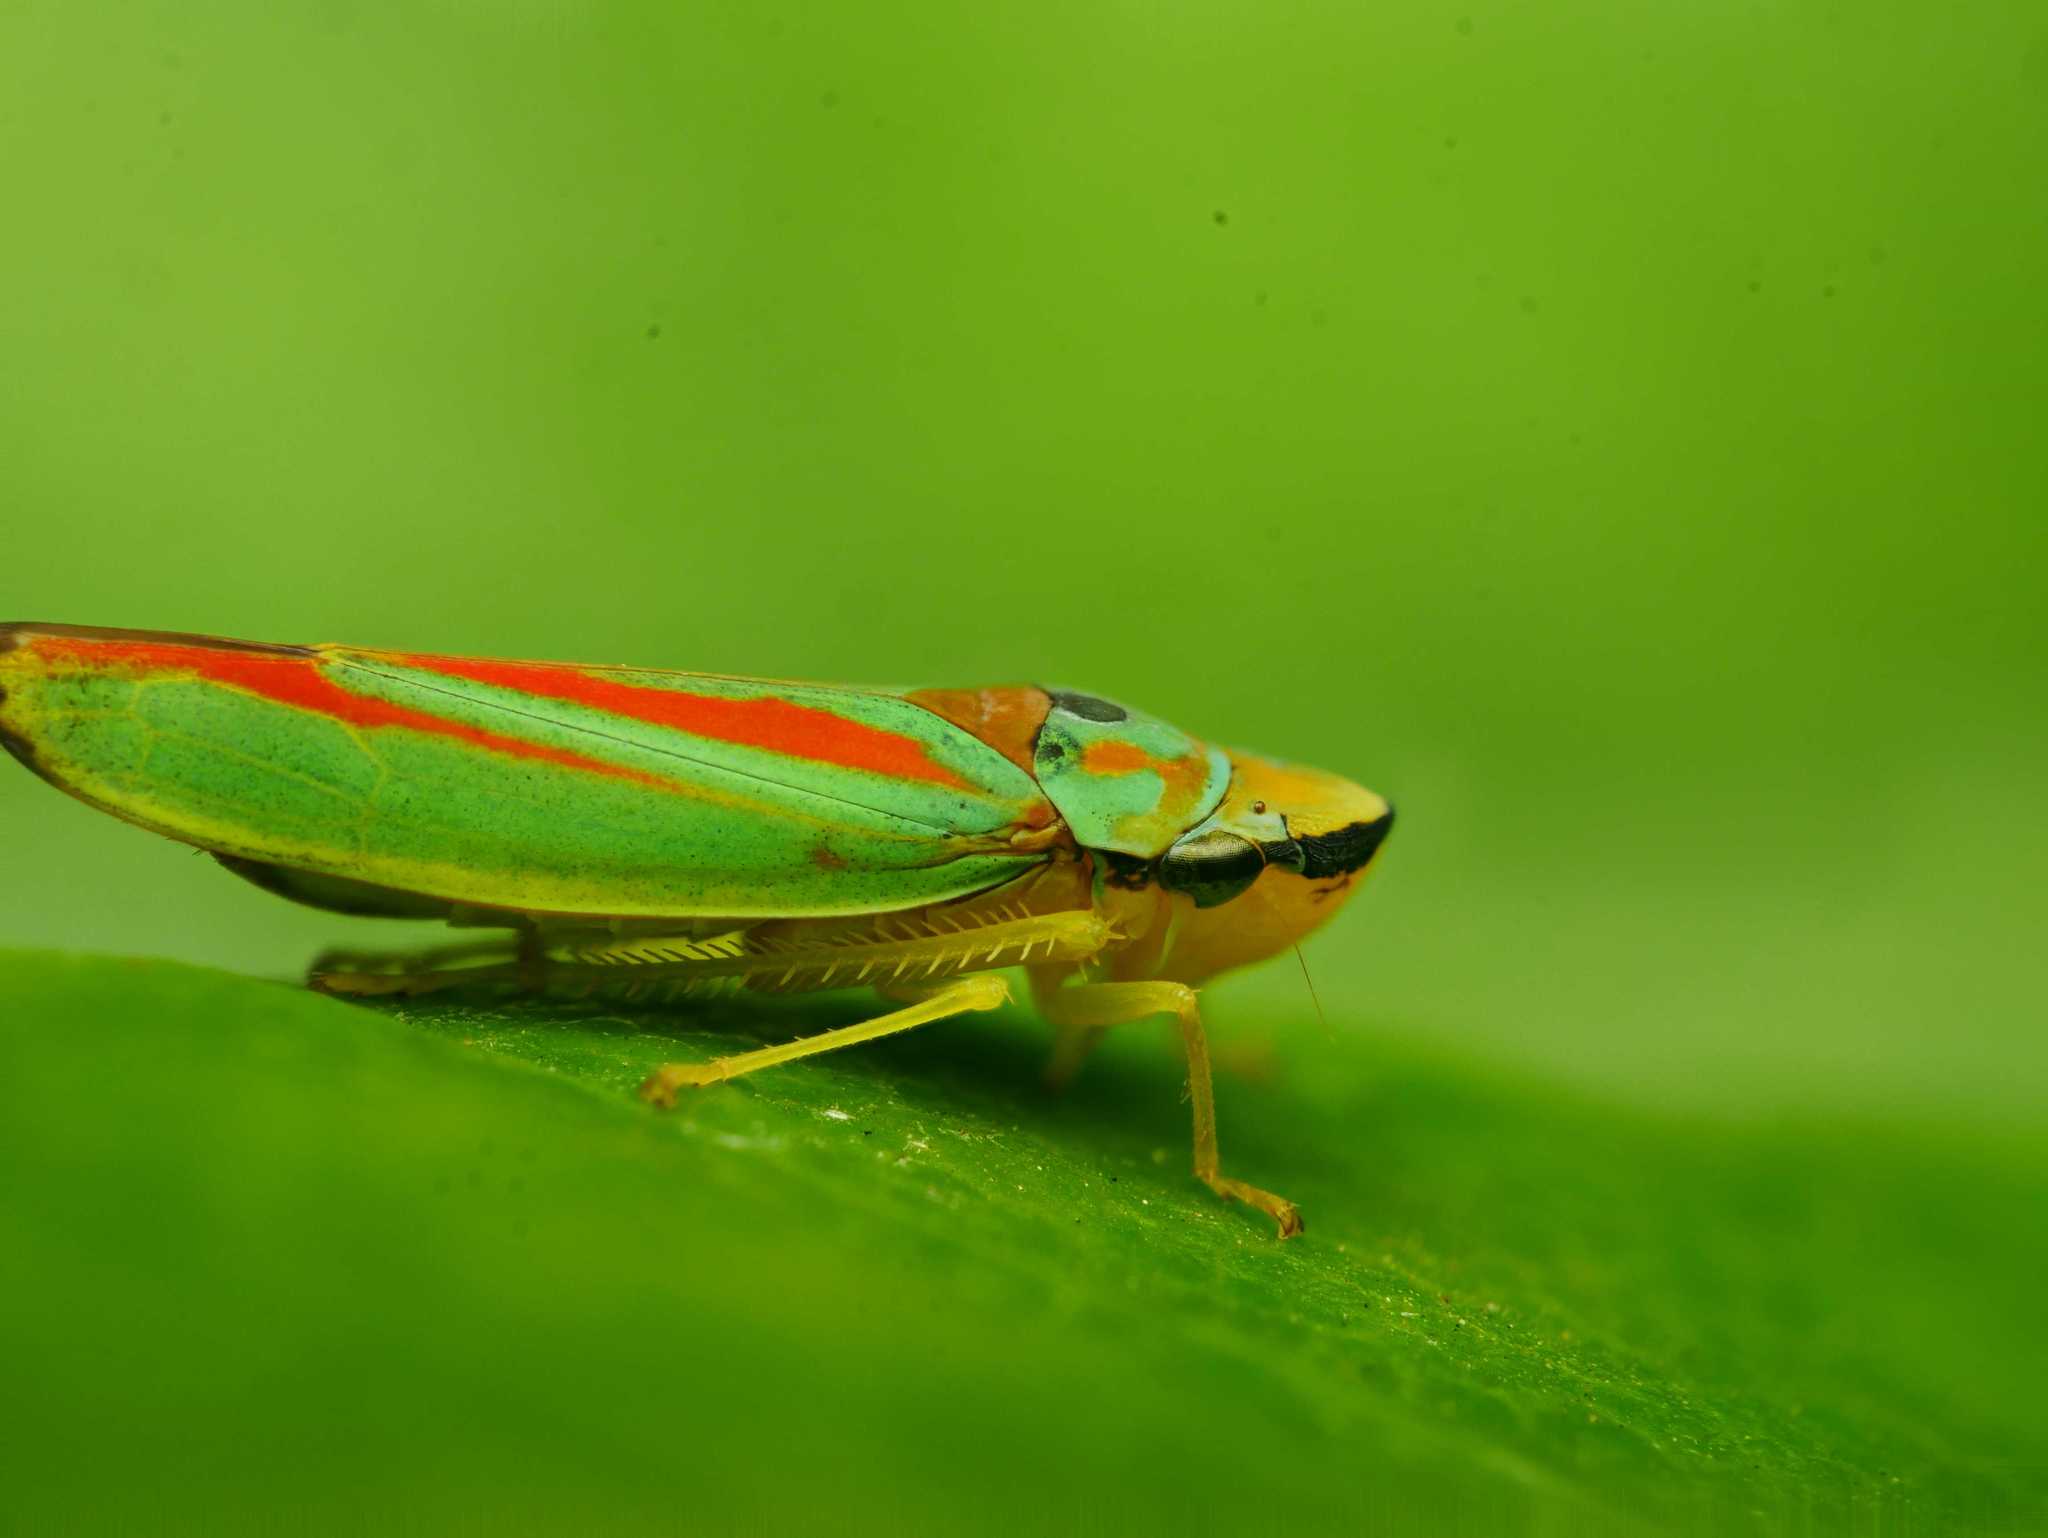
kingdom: Animalia
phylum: Arthropoda
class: Insecta
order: Hemiptera
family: Cicadellidae
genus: Graphocephala
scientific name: Graphocephala fennahi
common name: Rhododendron leafhopper
